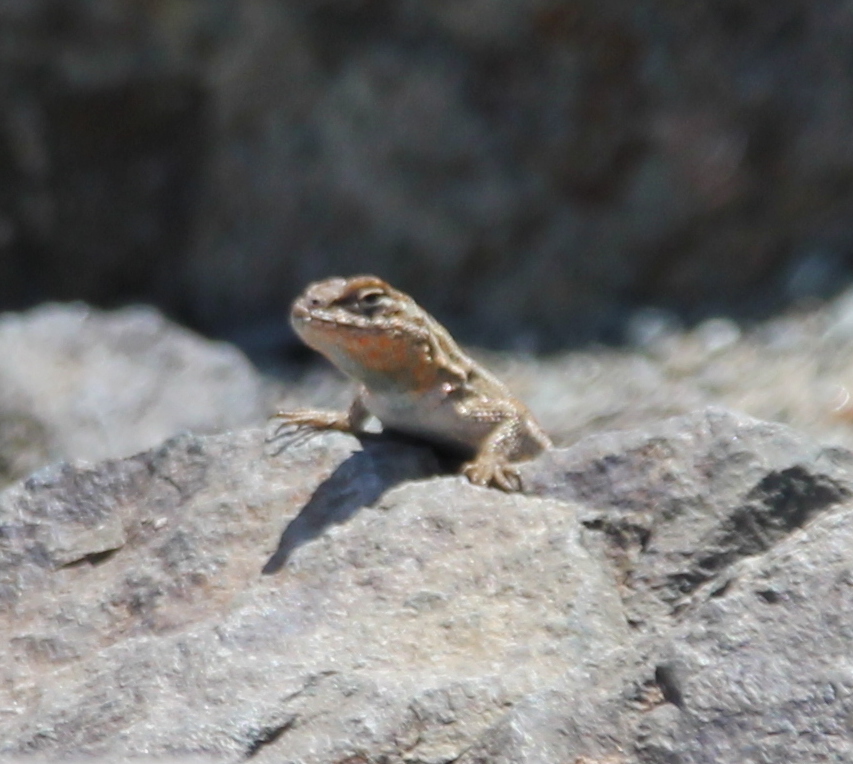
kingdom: Animalia
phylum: Chordata
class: Squamata
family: Phrynosomatidae
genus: Uta
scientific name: Uta stansburiana
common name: Side-blotched lizard
